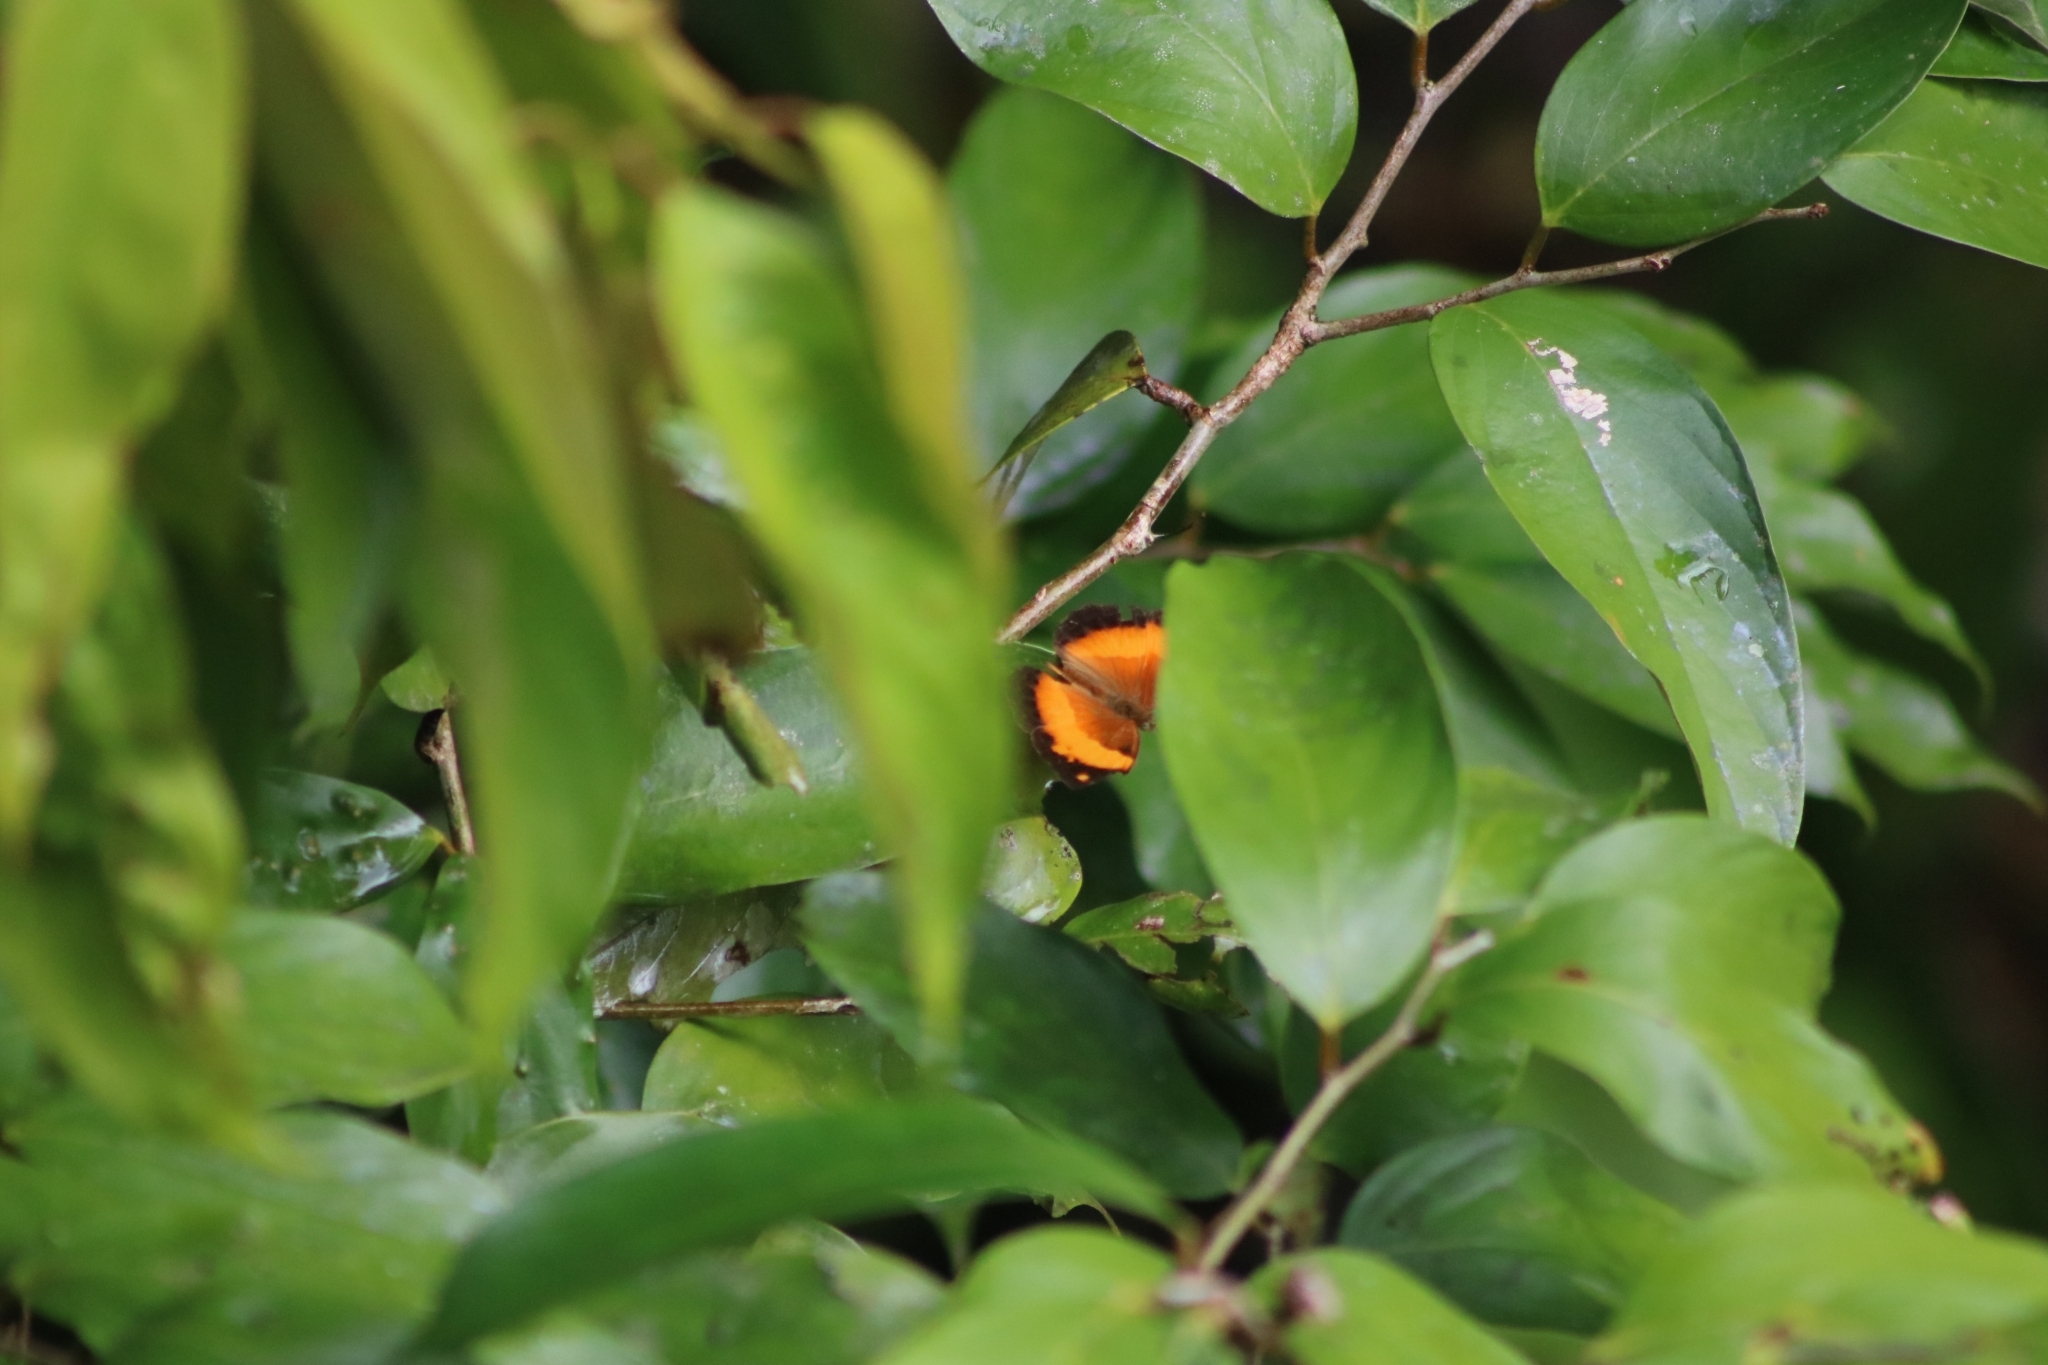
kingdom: Animalia
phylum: Arthropoda
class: Insecta
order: Lepidoptera
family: Nymphalidae
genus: Cupha
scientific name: Cupha prosope
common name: Bordered rustic
